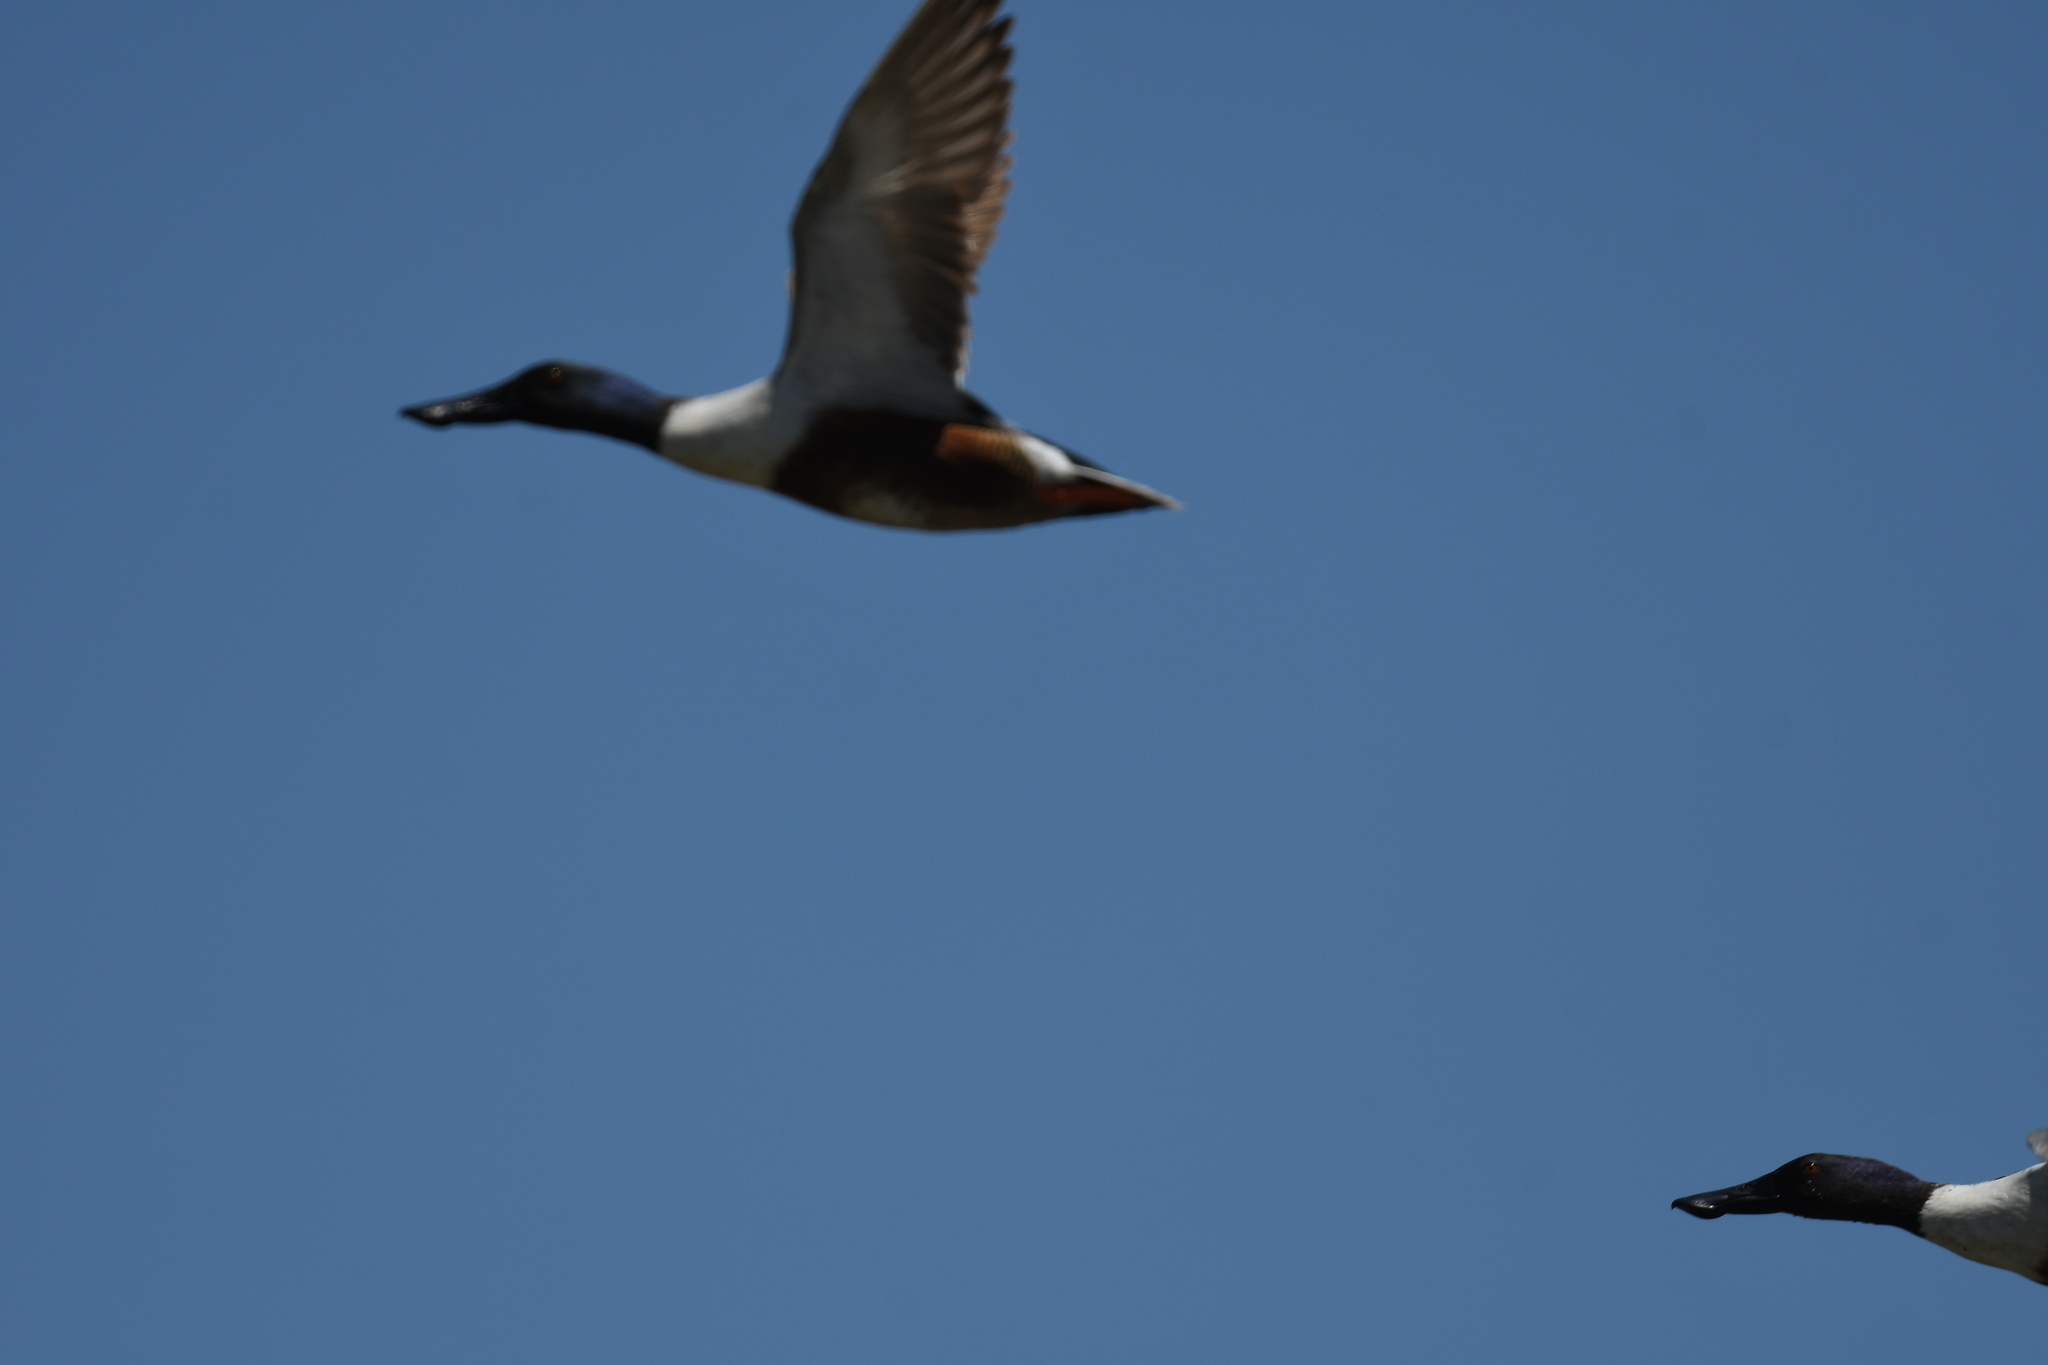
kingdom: Animalia
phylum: Chordata
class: Aves
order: Anseriformes
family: Anatidae
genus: Spatula
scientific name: Spatula clypeata
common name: Northern shoveler
